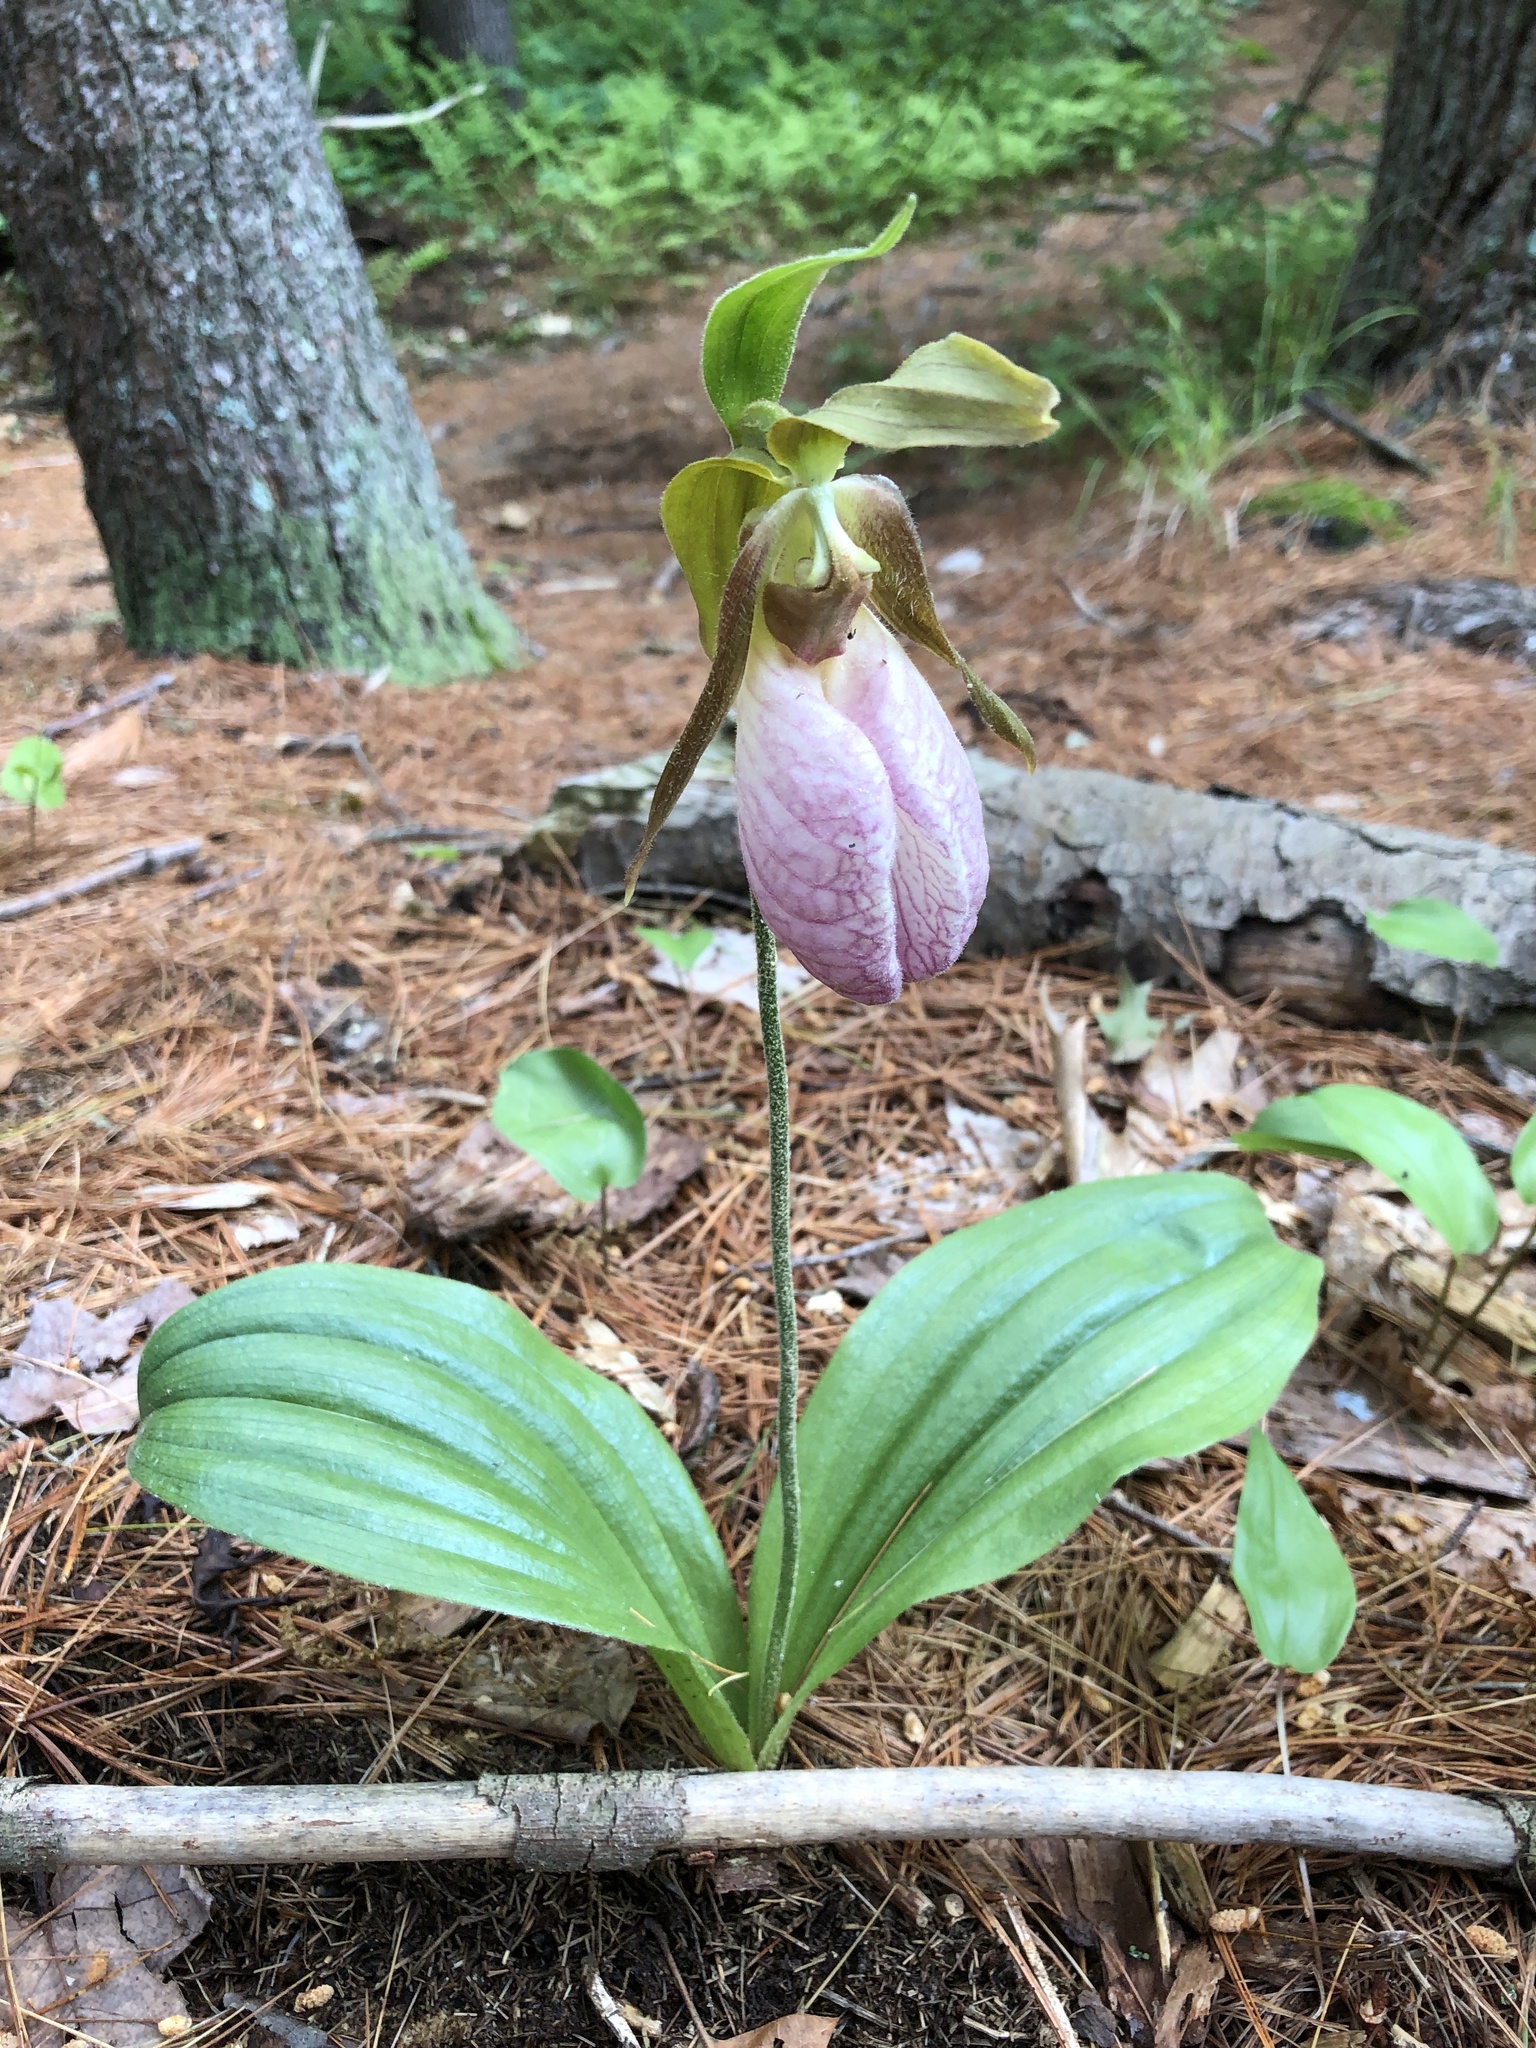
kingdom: Plantae
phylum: Tracheophyta
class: Liliopsida
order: Asparagales
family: Orchidaceae
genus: Cypripedium
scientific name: Cypripedium acaule
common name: Pink lady's-slipper
